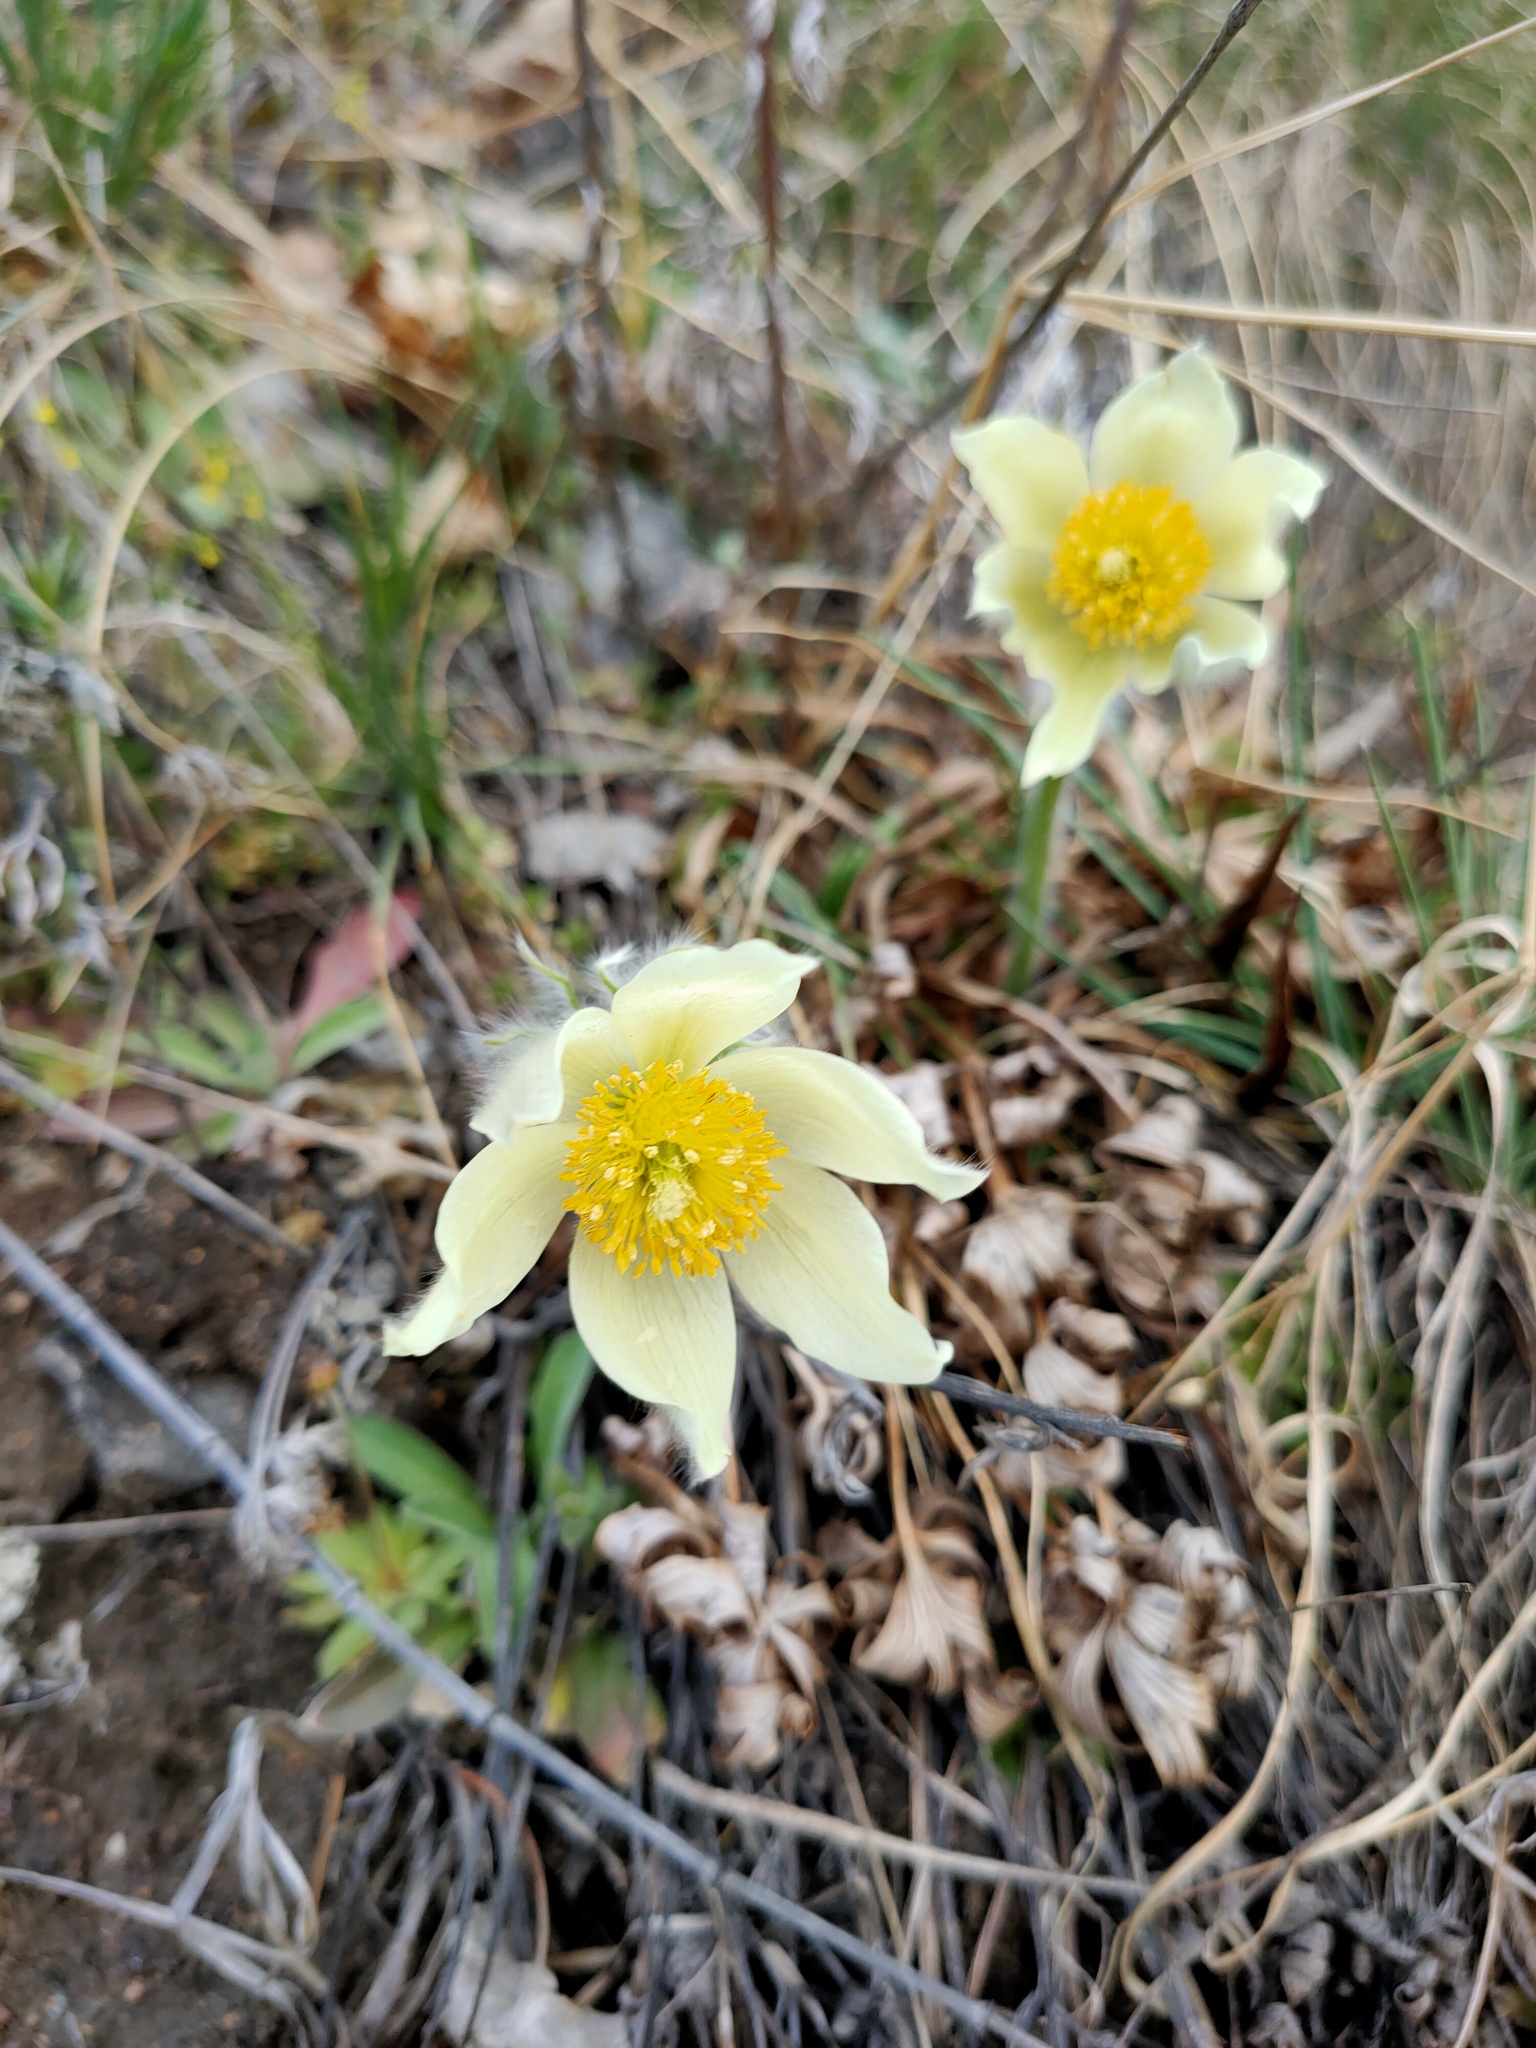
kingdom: Plantae
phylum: Tracheophyta
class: Magnoliopsida
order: Ranunculales
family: Ranunculaceae
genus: Pulsatilla
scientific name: Pulsatilla patens
